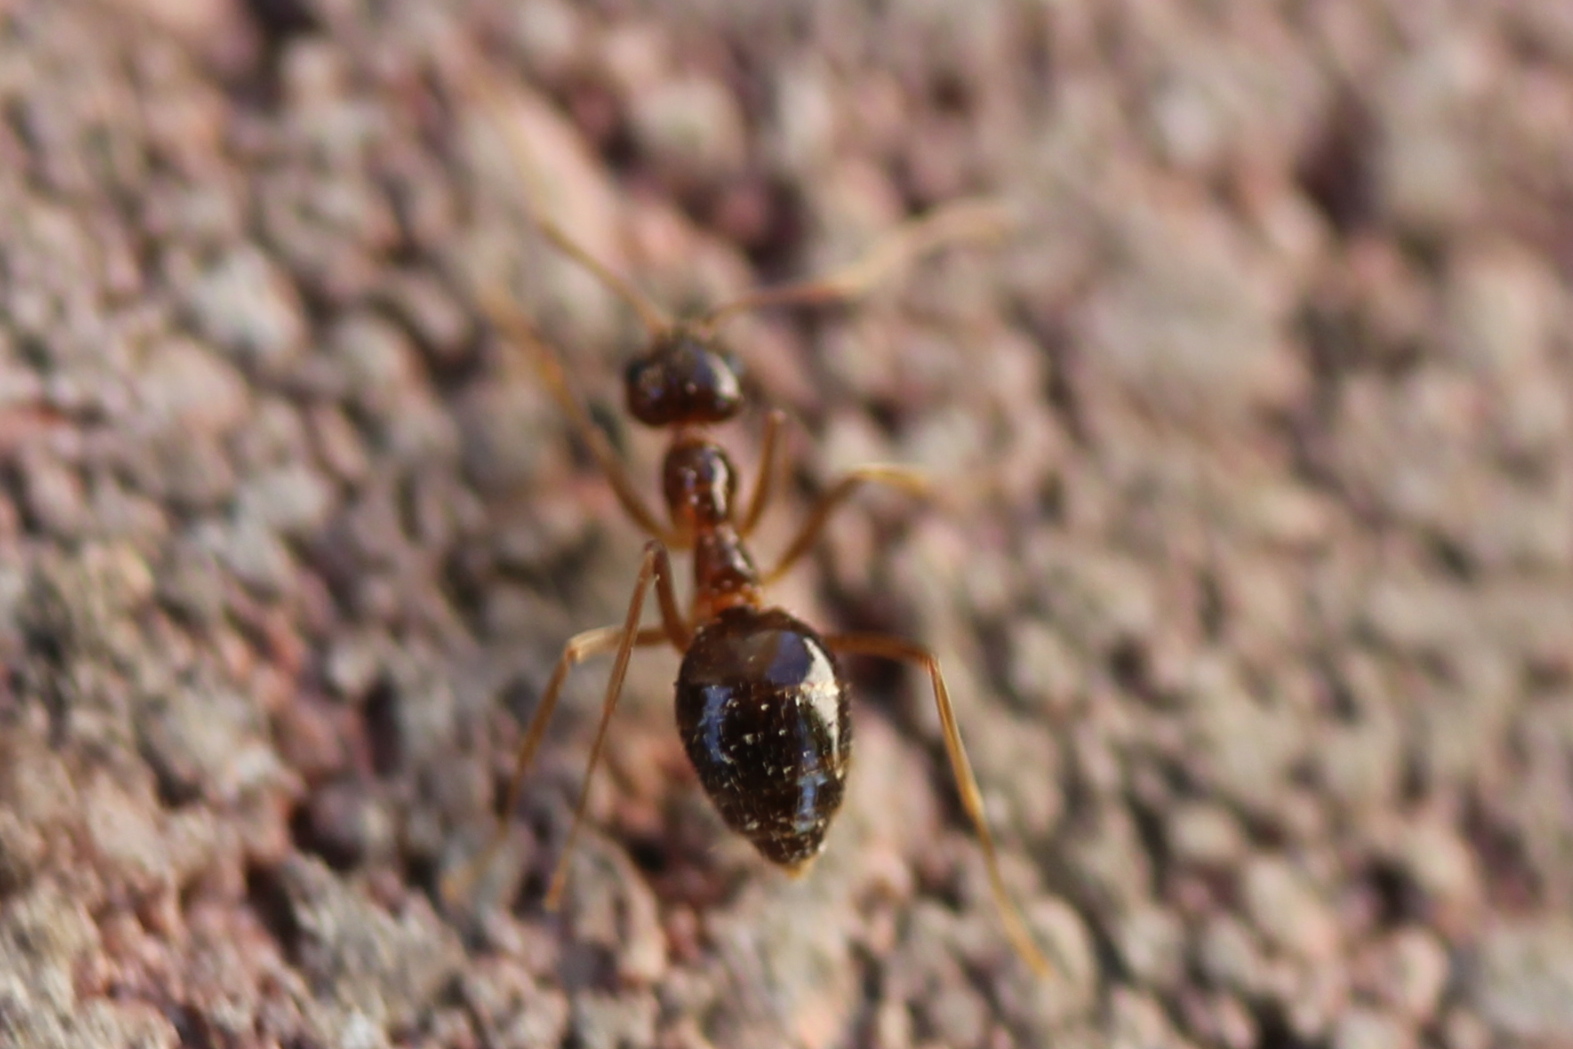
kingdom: Animalia
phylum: Arthropoda
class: Insecta
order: Hymenoptera
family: Formicidae
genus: Prenolepis
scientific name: Prenolepis imparis
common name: Small honey ant
